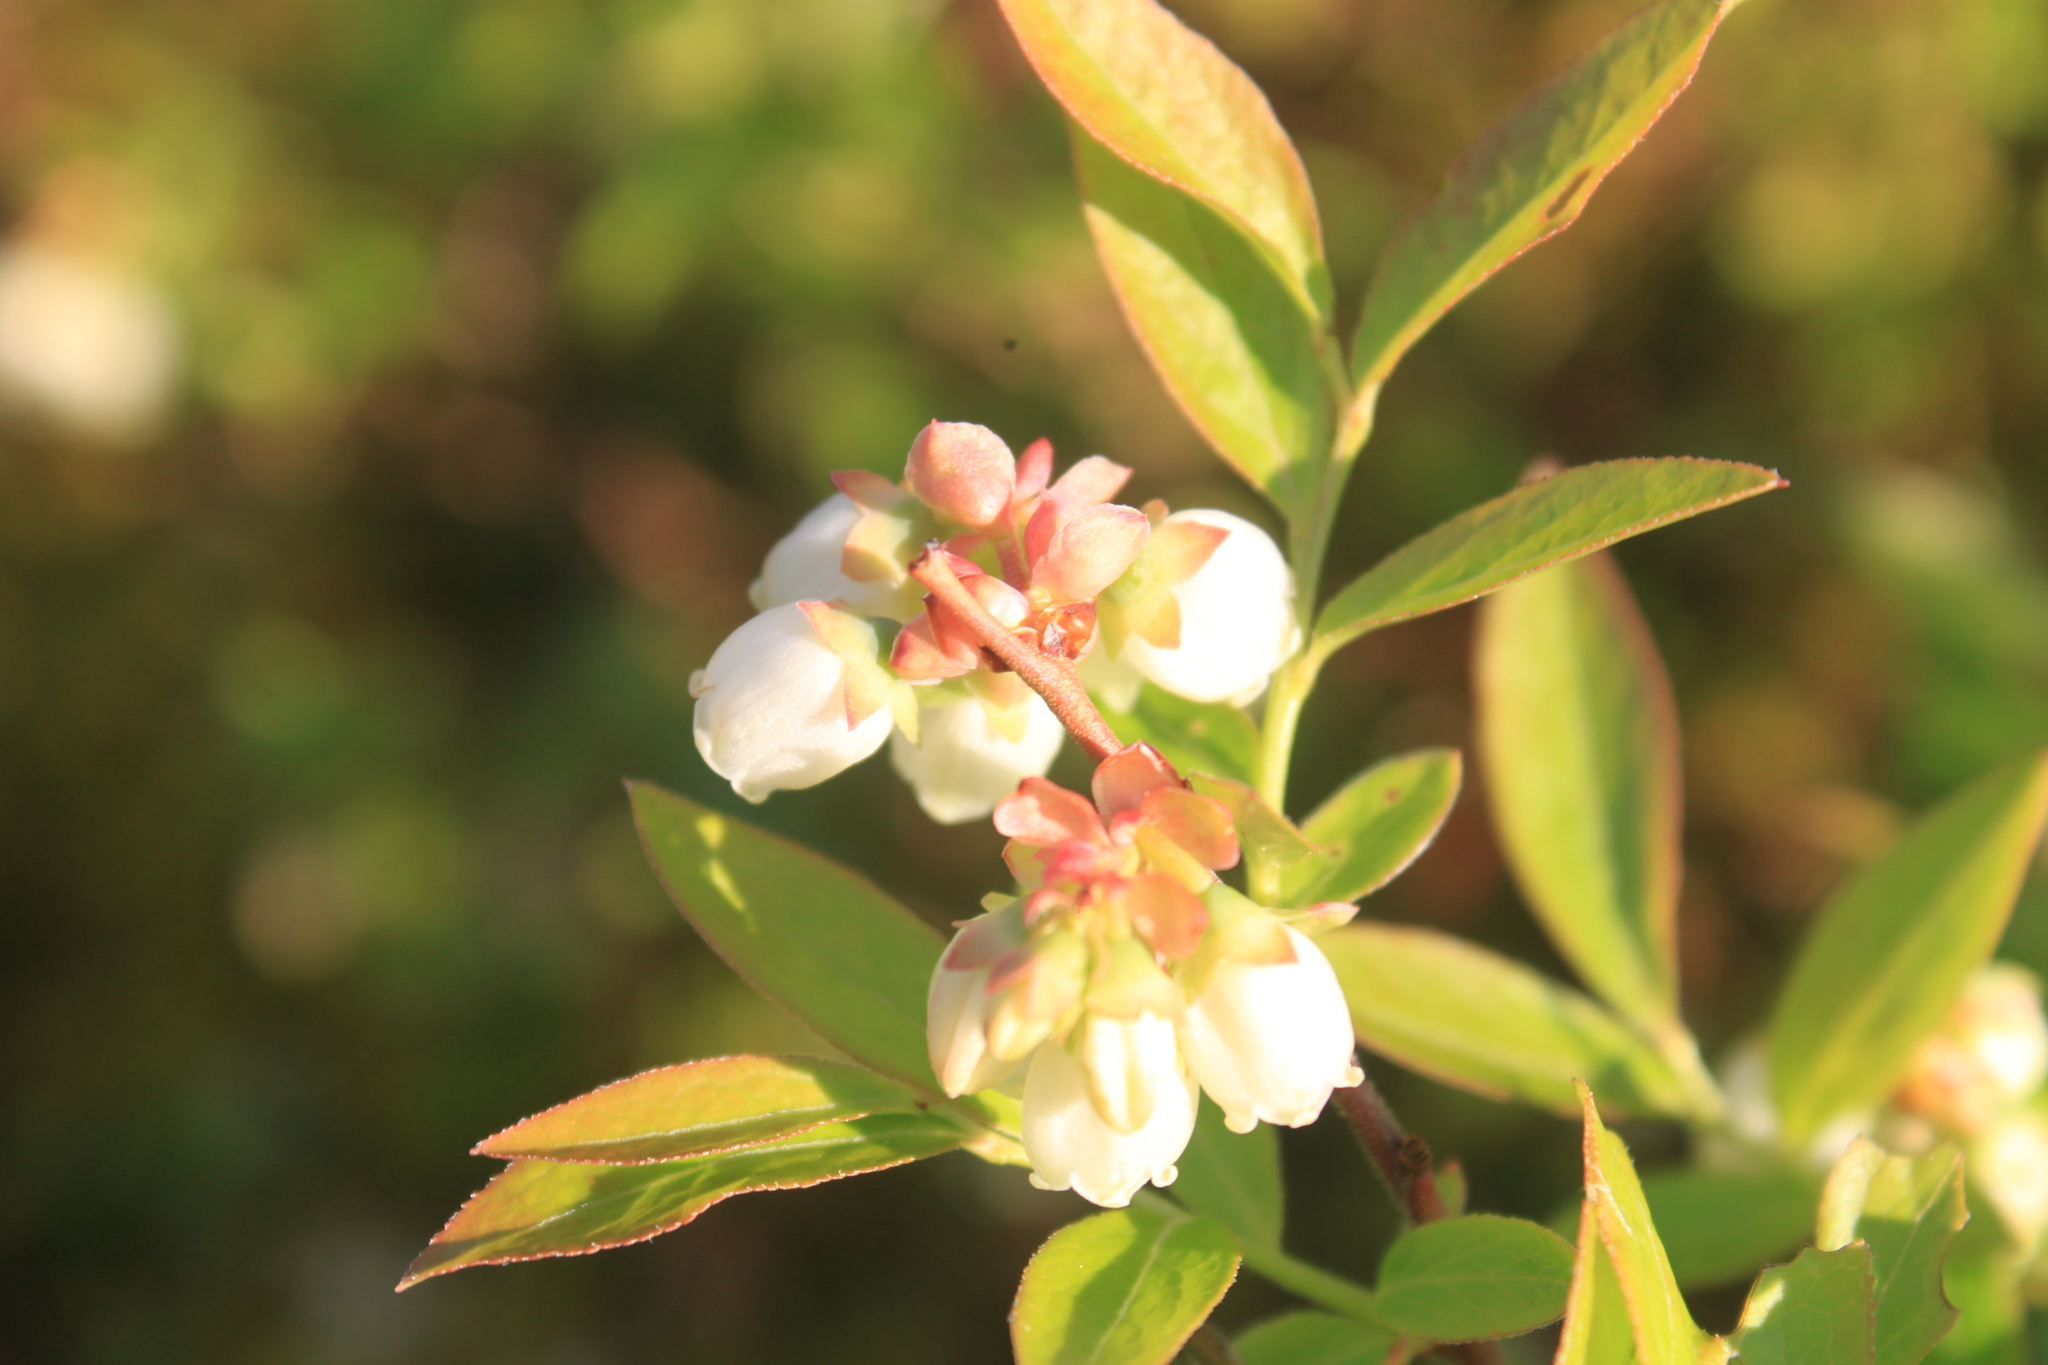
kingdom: Plantae
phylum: Tracheophyta
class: Magnoliopsida
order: Ericales
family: Ericaceae
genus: Vaccinium
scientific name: Vaccinium angustifolium
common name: Early lowbush blueberry
